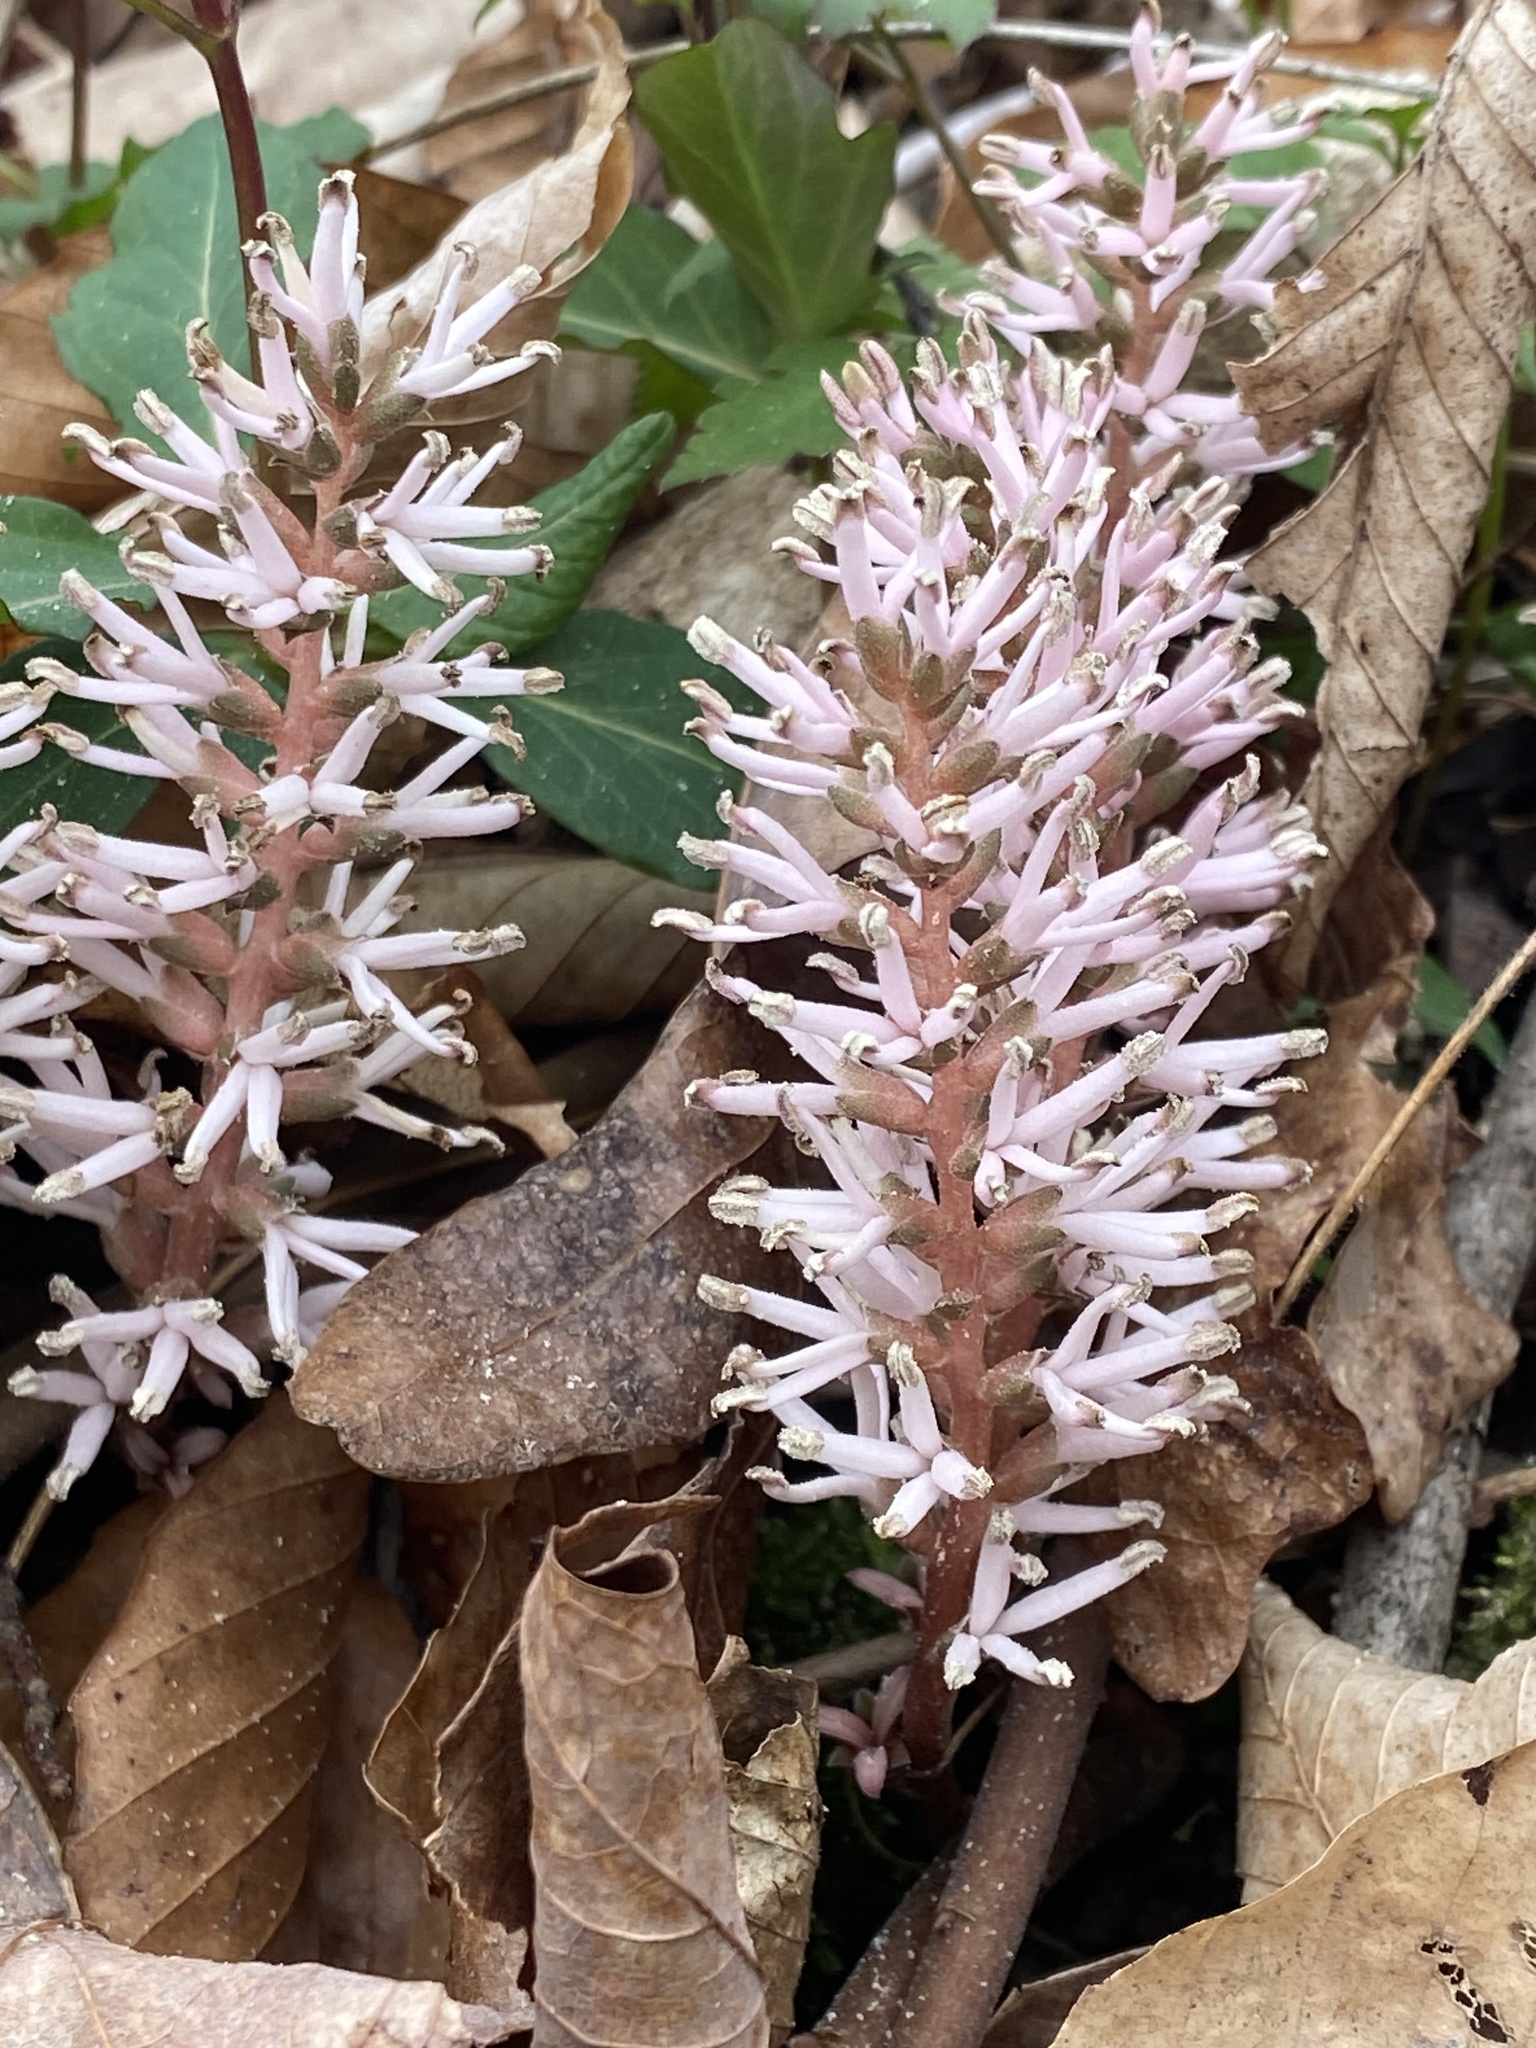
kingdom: Plantae
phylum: Tracheophyta
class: Magnoliopsida
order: Buxales
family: Buxaceae
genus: Pachysandra
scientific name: Pachysandra procumbens
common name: Mountain-spurge
